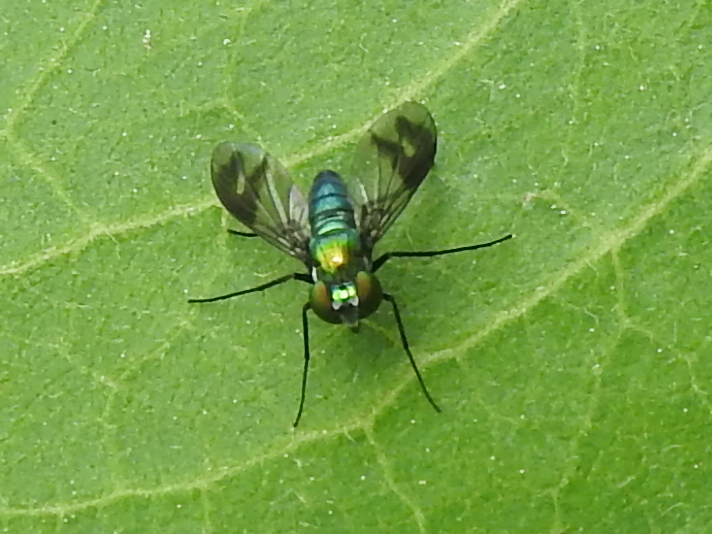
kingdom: Animalia
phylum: Arthropoda
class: Insecta
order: Diptera
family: Dolichopodidae
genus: Condylostylus
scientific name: Condylostylus patibulatus
